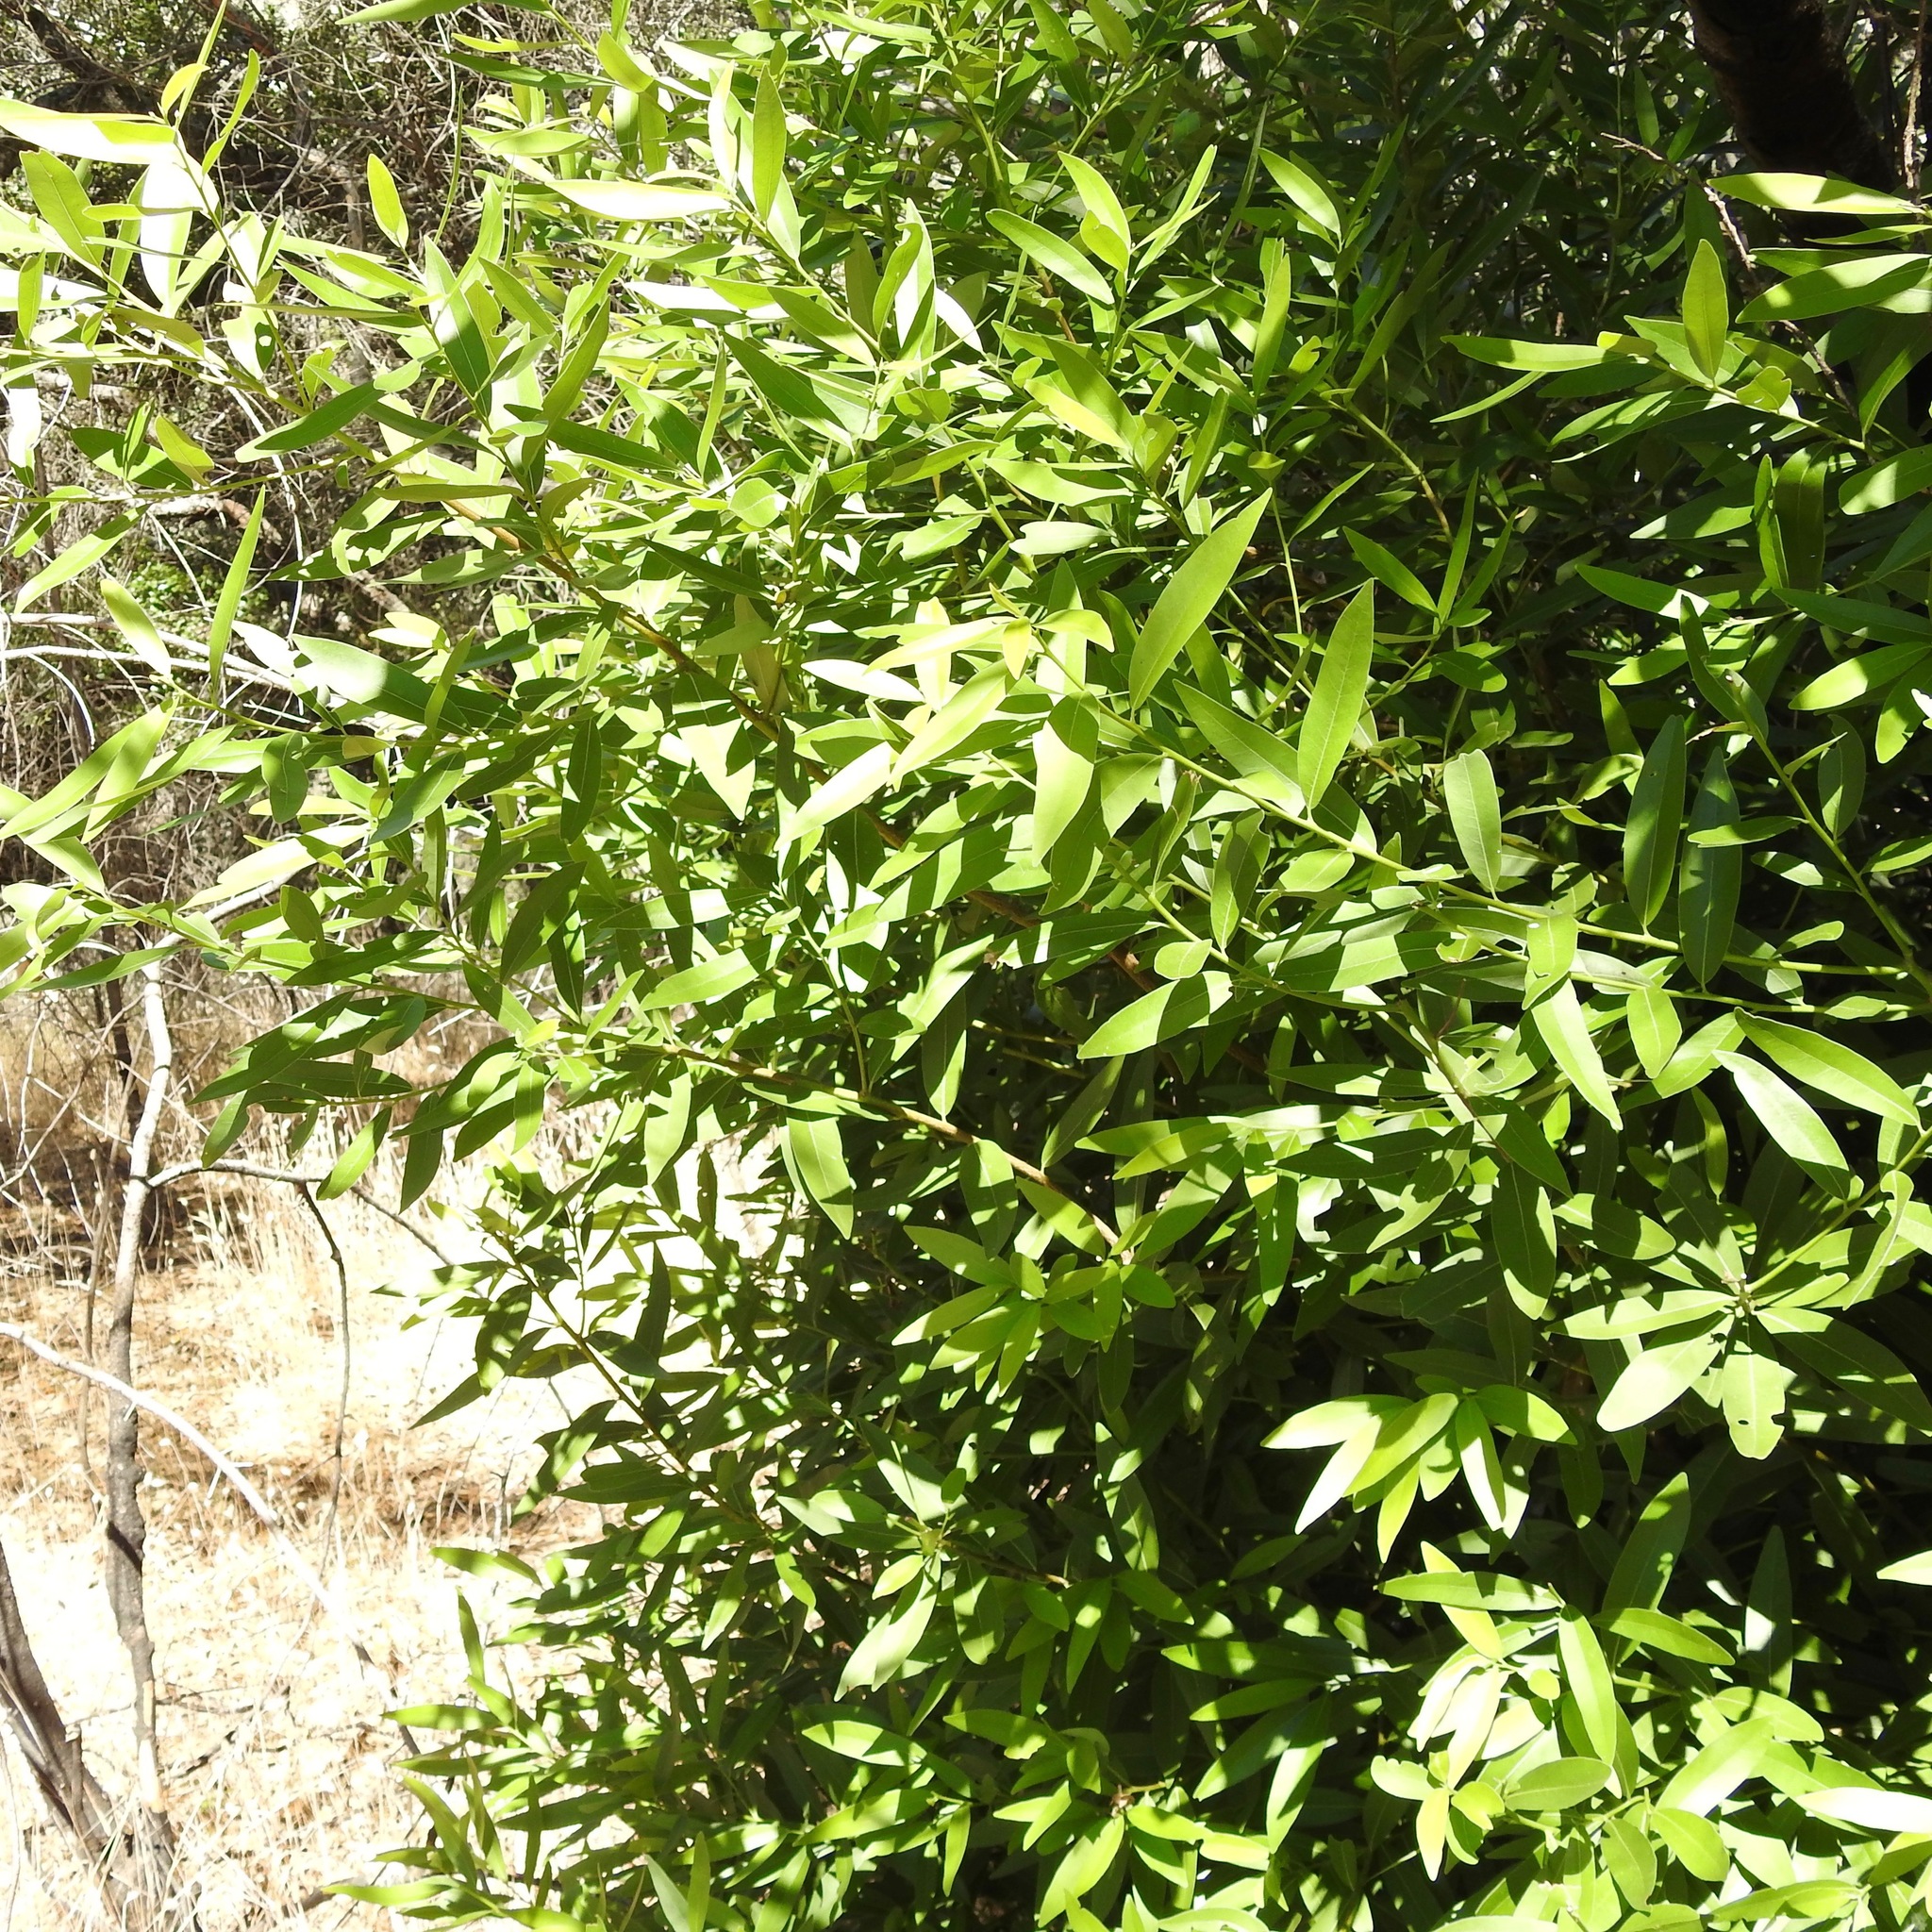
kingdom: Plantae
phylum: Tracheophyta
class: Magnoliopsida
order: Laurales
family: Lauraceae
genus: Umbellularia
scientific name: Umbellularia californica
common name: California bay
